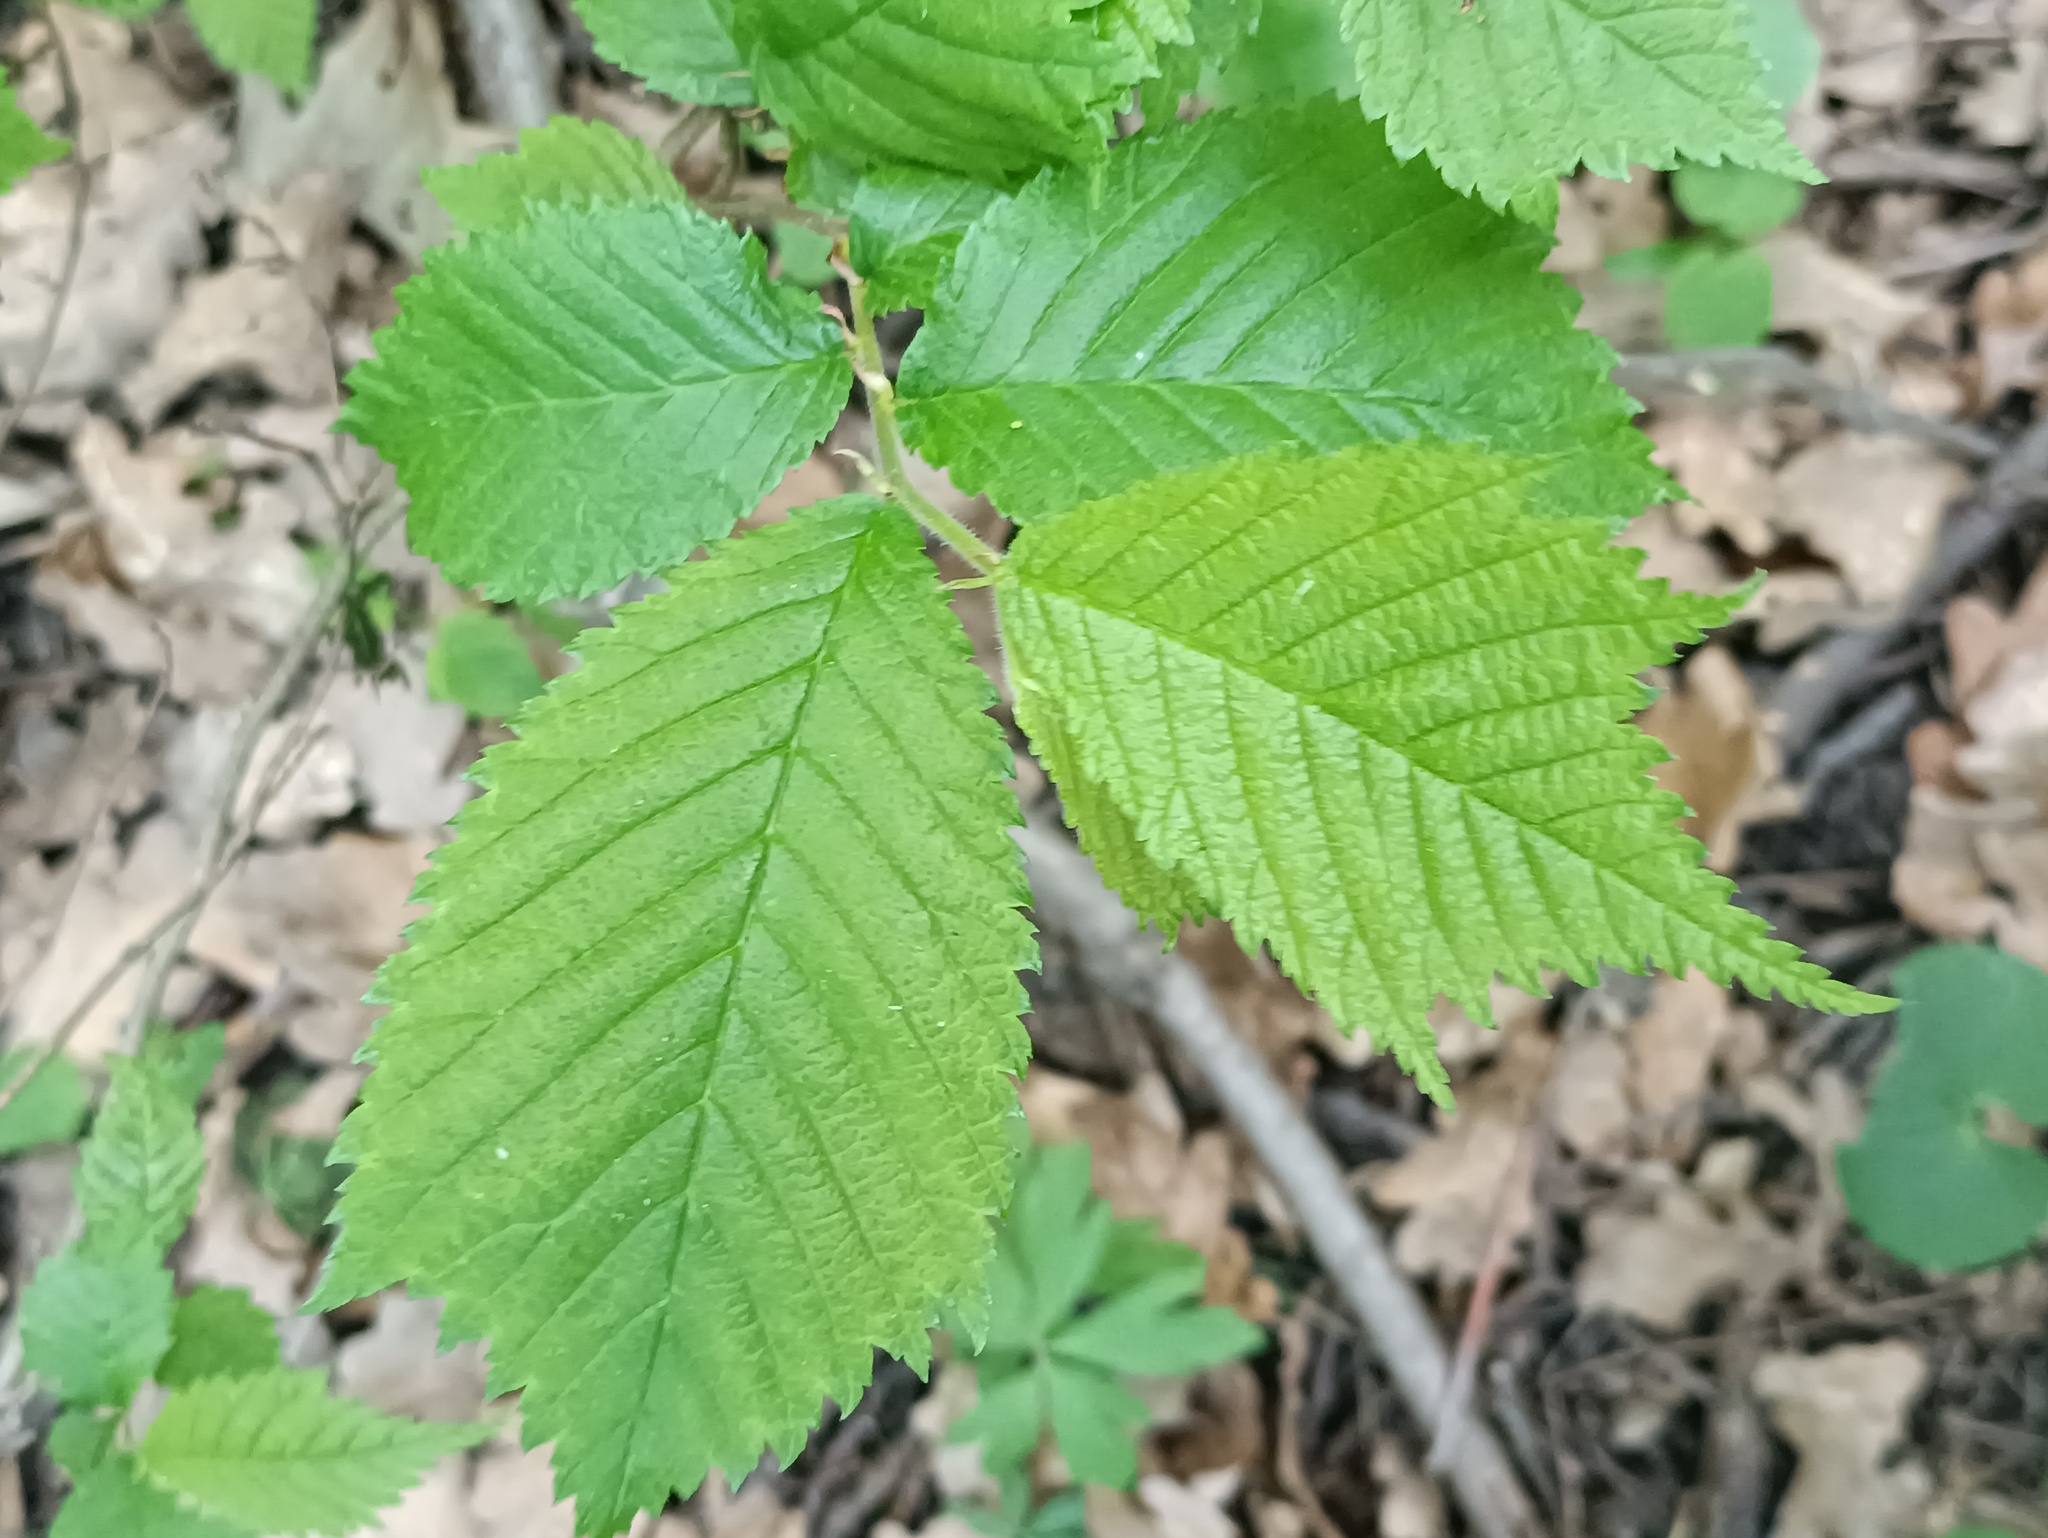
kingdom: Plantae
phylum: Tracheophyta
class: Magnoliopsida
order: Rosales
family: Ulmaceae
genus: Ulmus
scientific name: Ulmus glabra
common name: Wych elm
